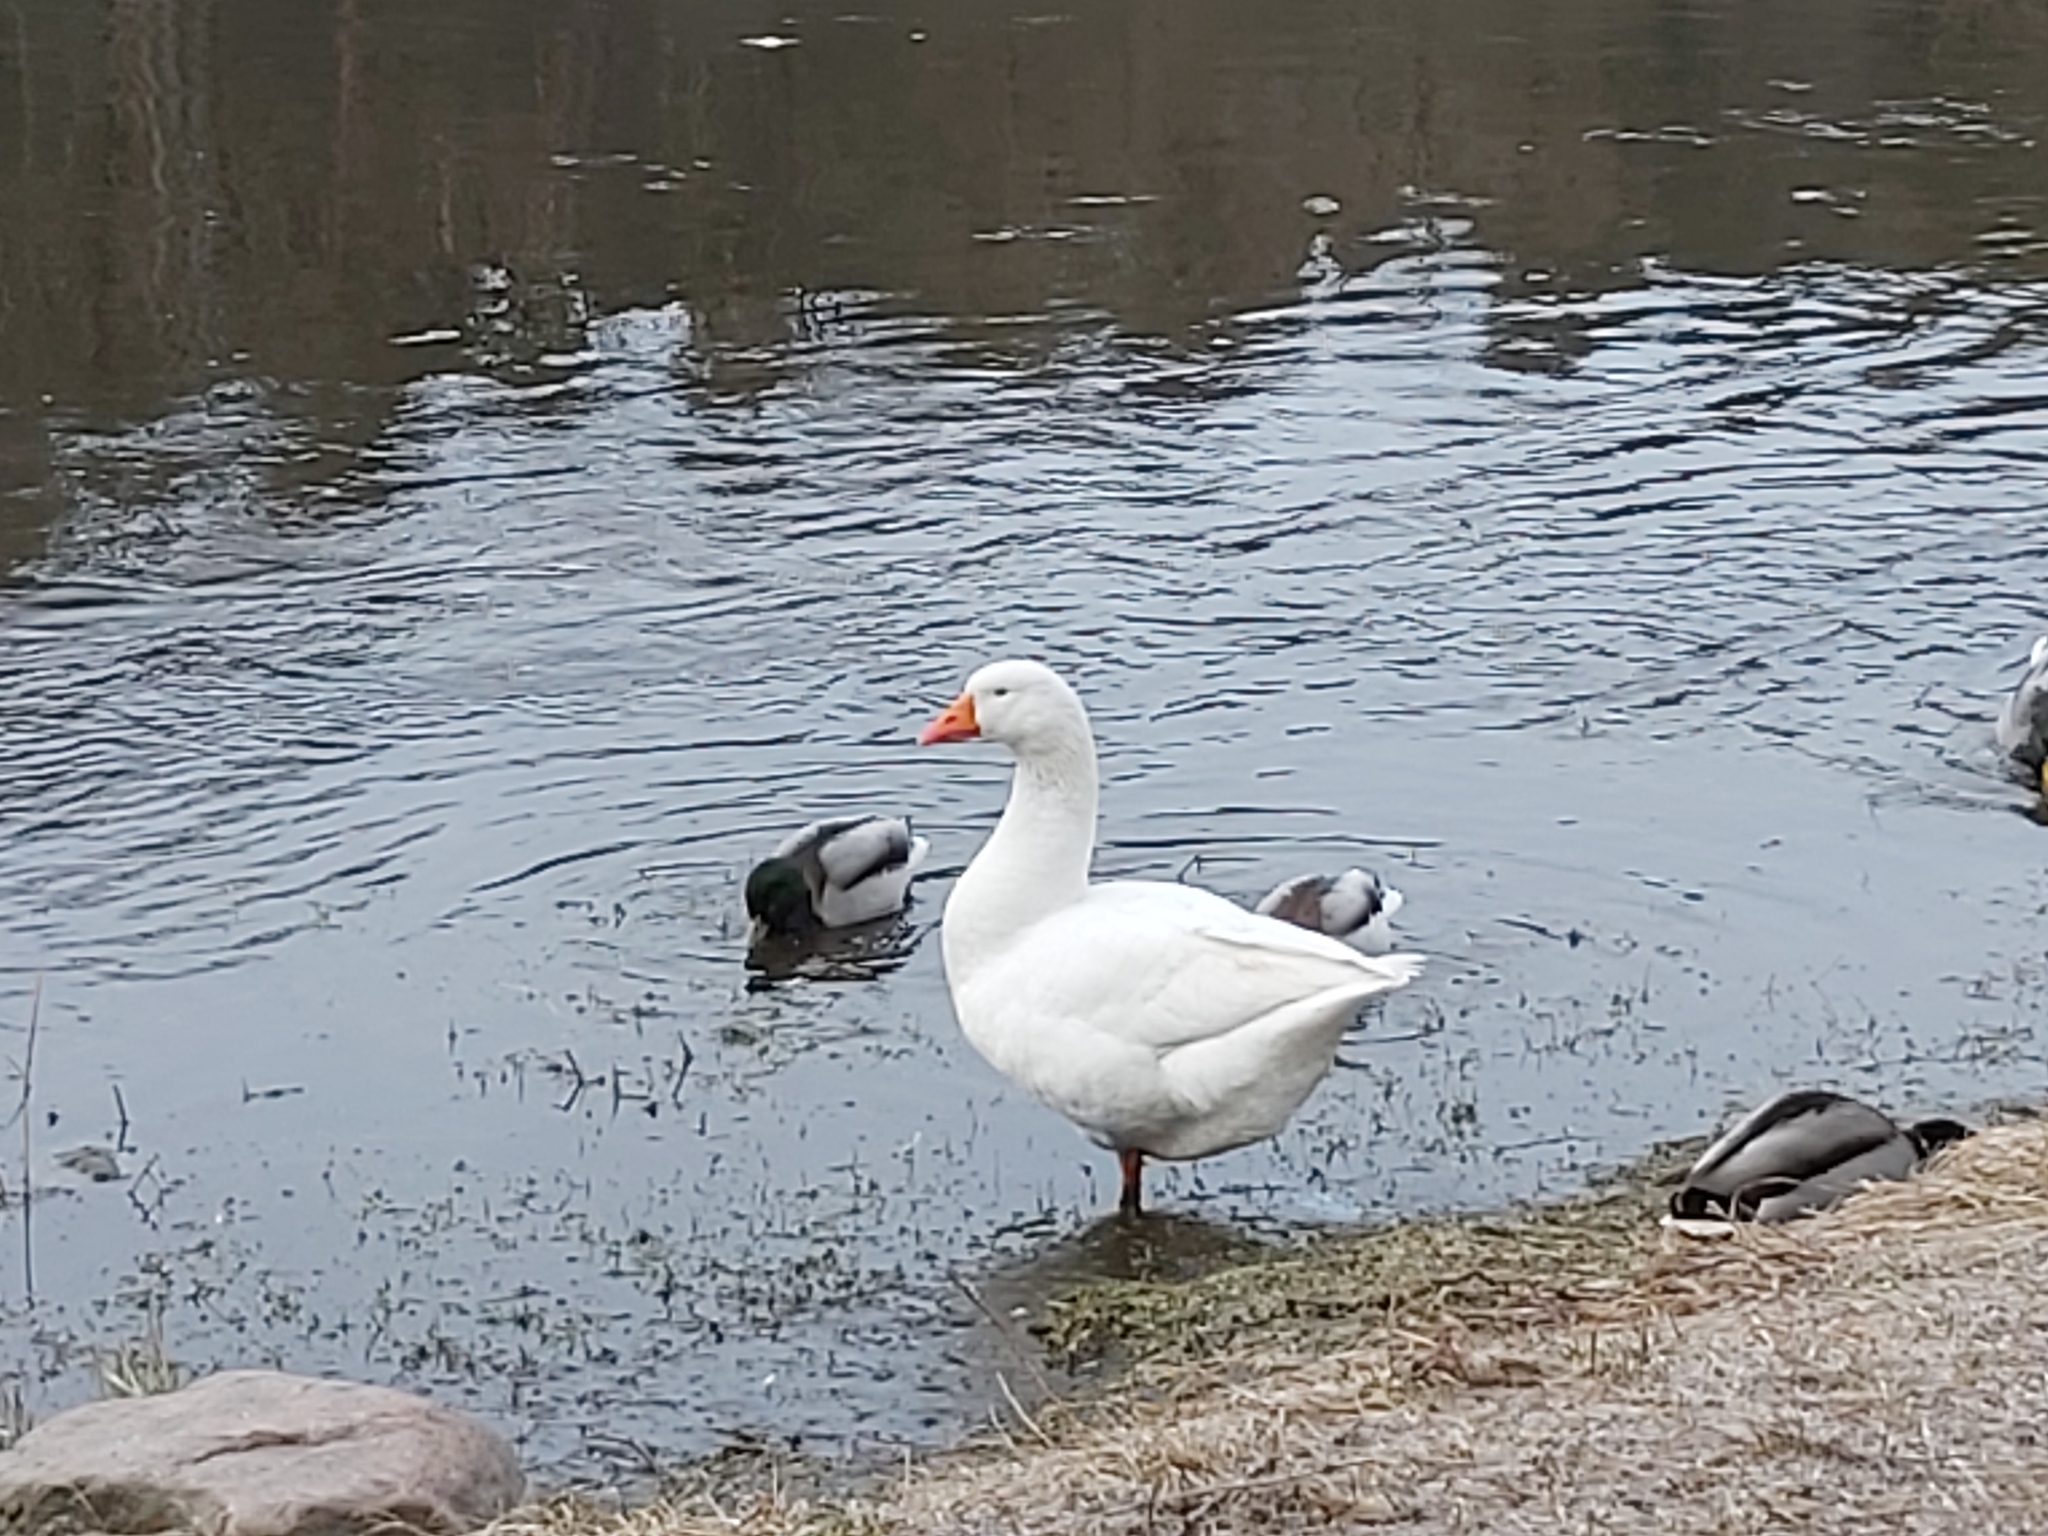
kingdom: Animalia
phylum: Chordata
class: Aves
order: Anseriformes
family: Anatidae
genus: Anser
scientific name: Anser anser
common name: Greylag goose
